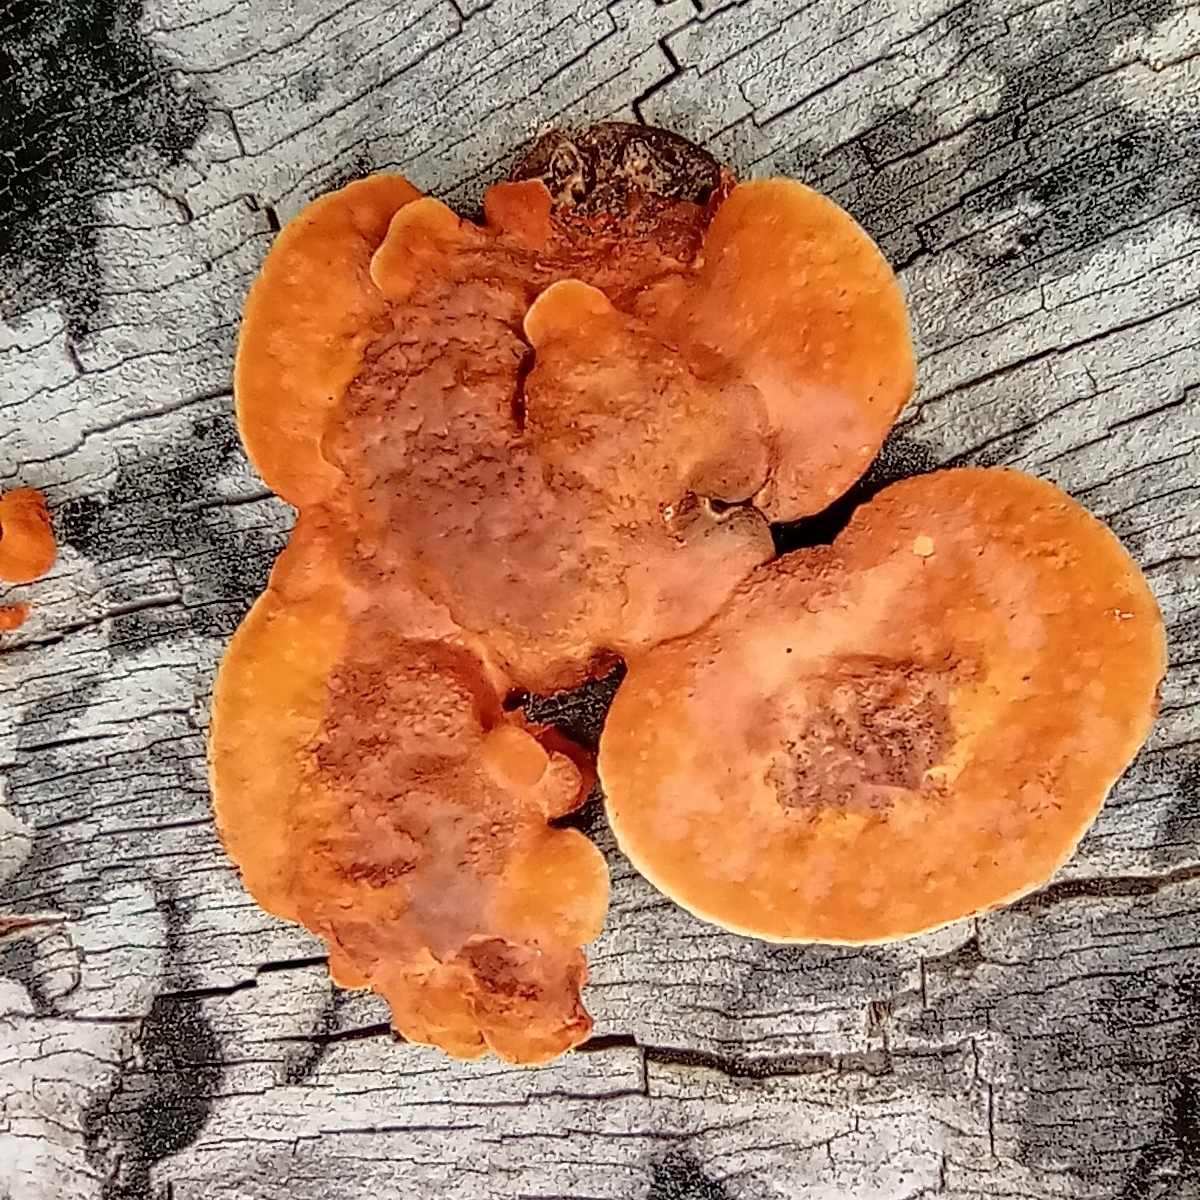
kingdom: Fungi
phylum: Basidiomycota
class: Agaricomycetes
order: Polyporales
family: Polyporaceae
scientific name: Polyporaceae
